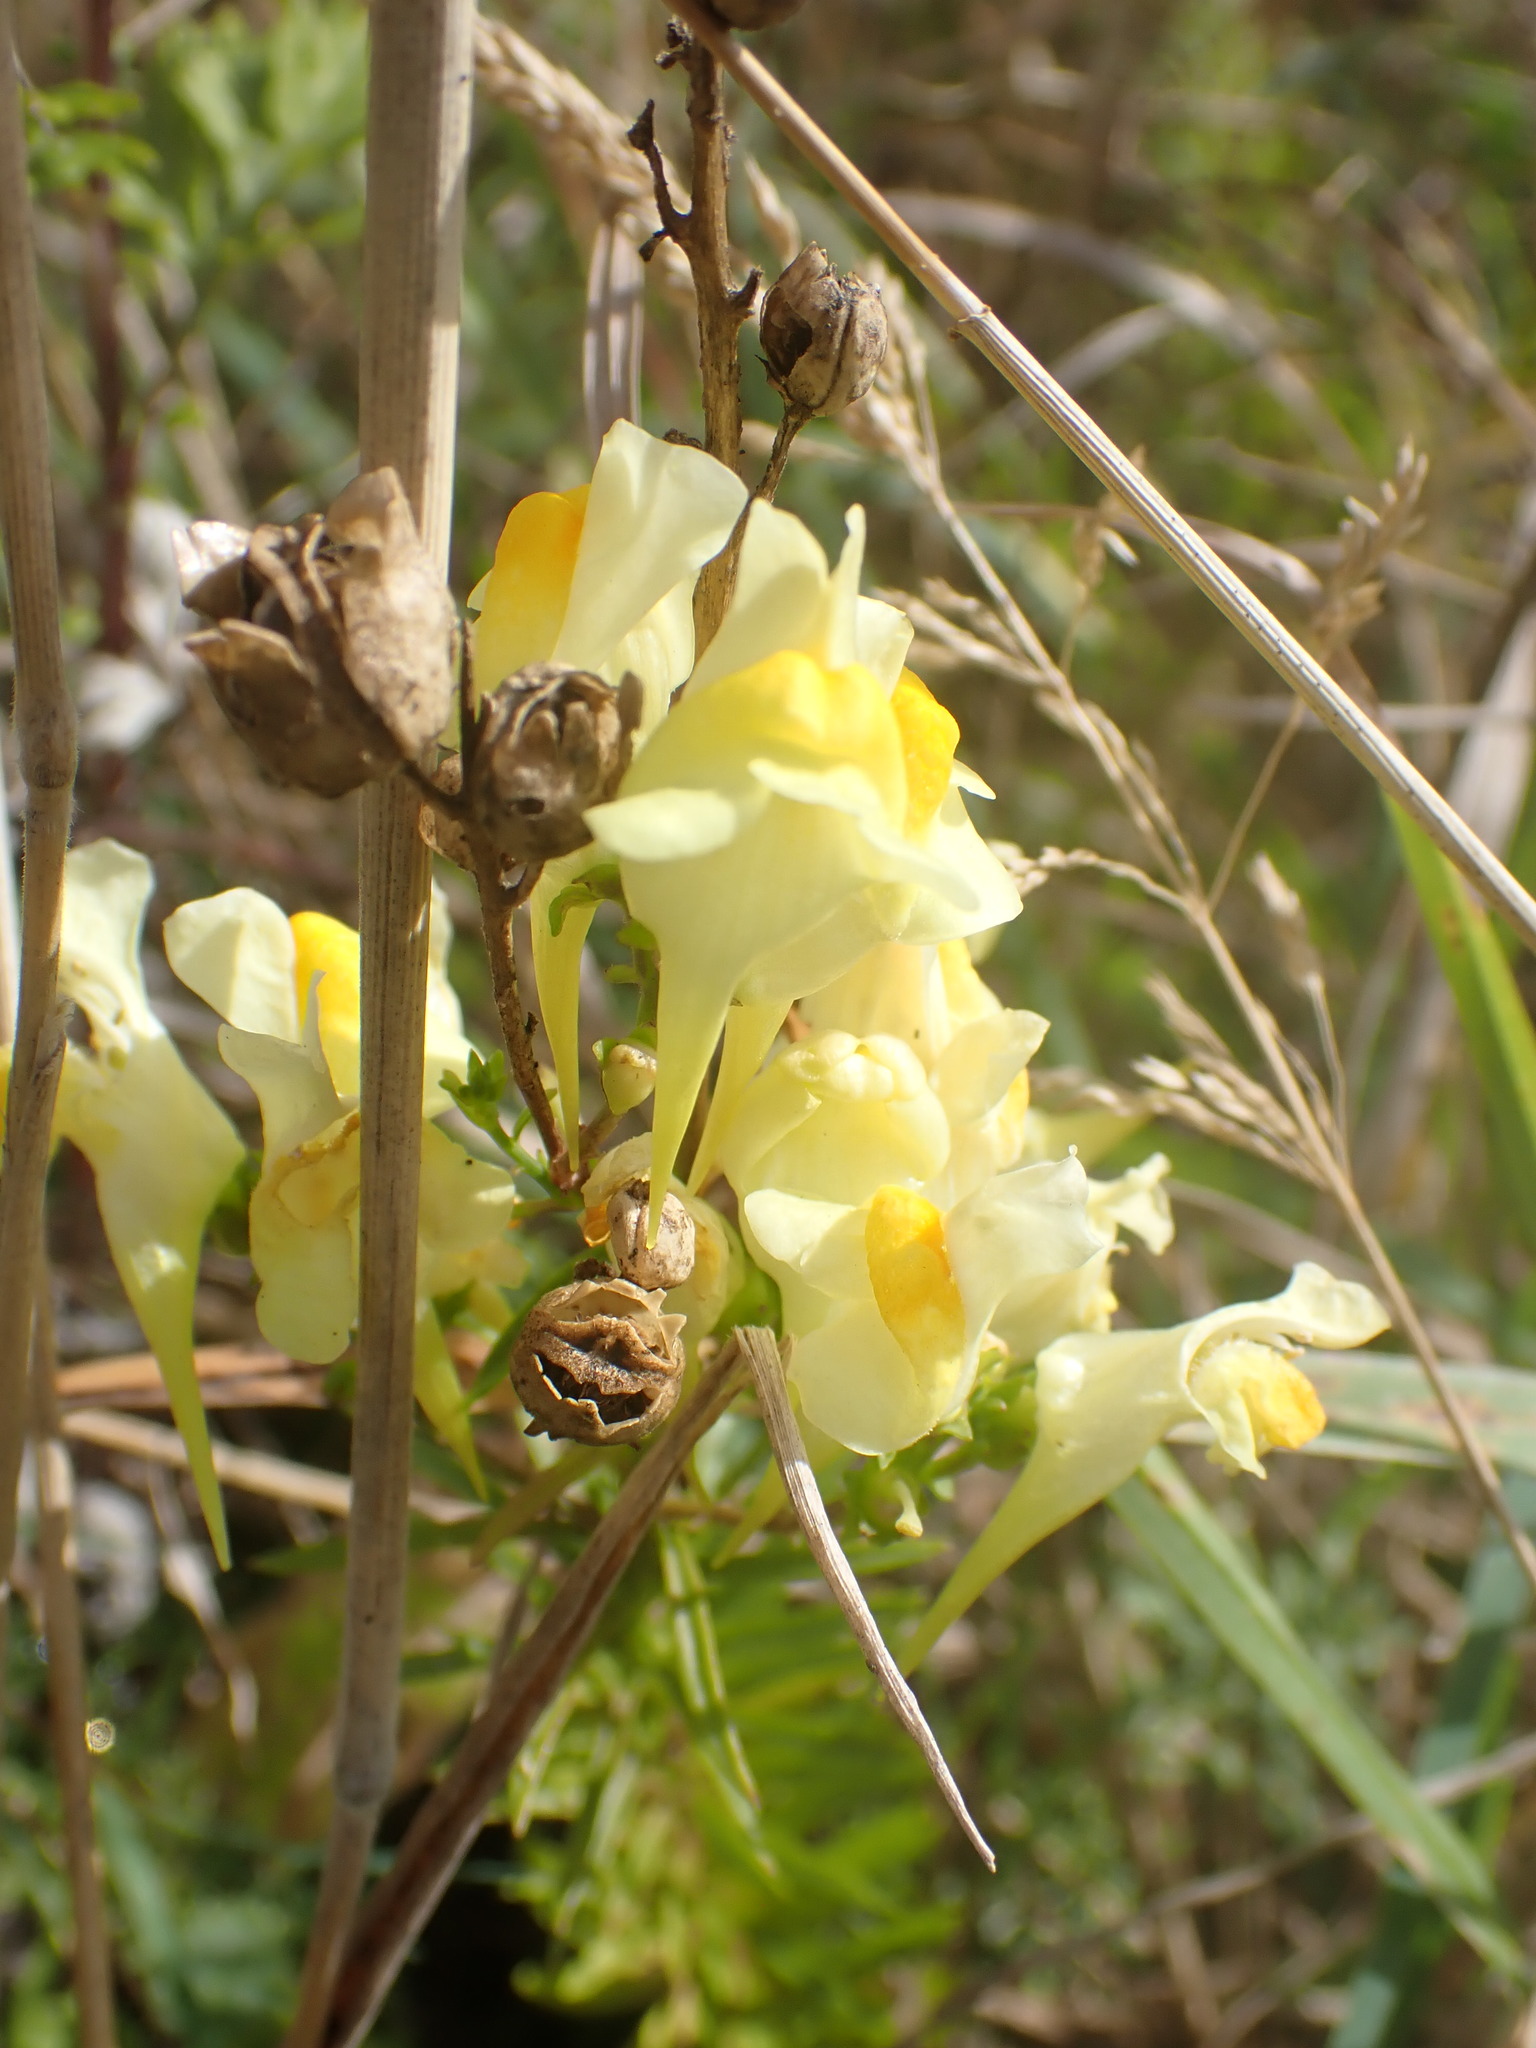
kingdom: Plantae
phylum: Tracheophyta
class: Magnoliopsida
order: Lamiales
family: Plantaginaceae
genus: Linaria
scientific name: Linaria vulgaris
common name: Butter and eggs
